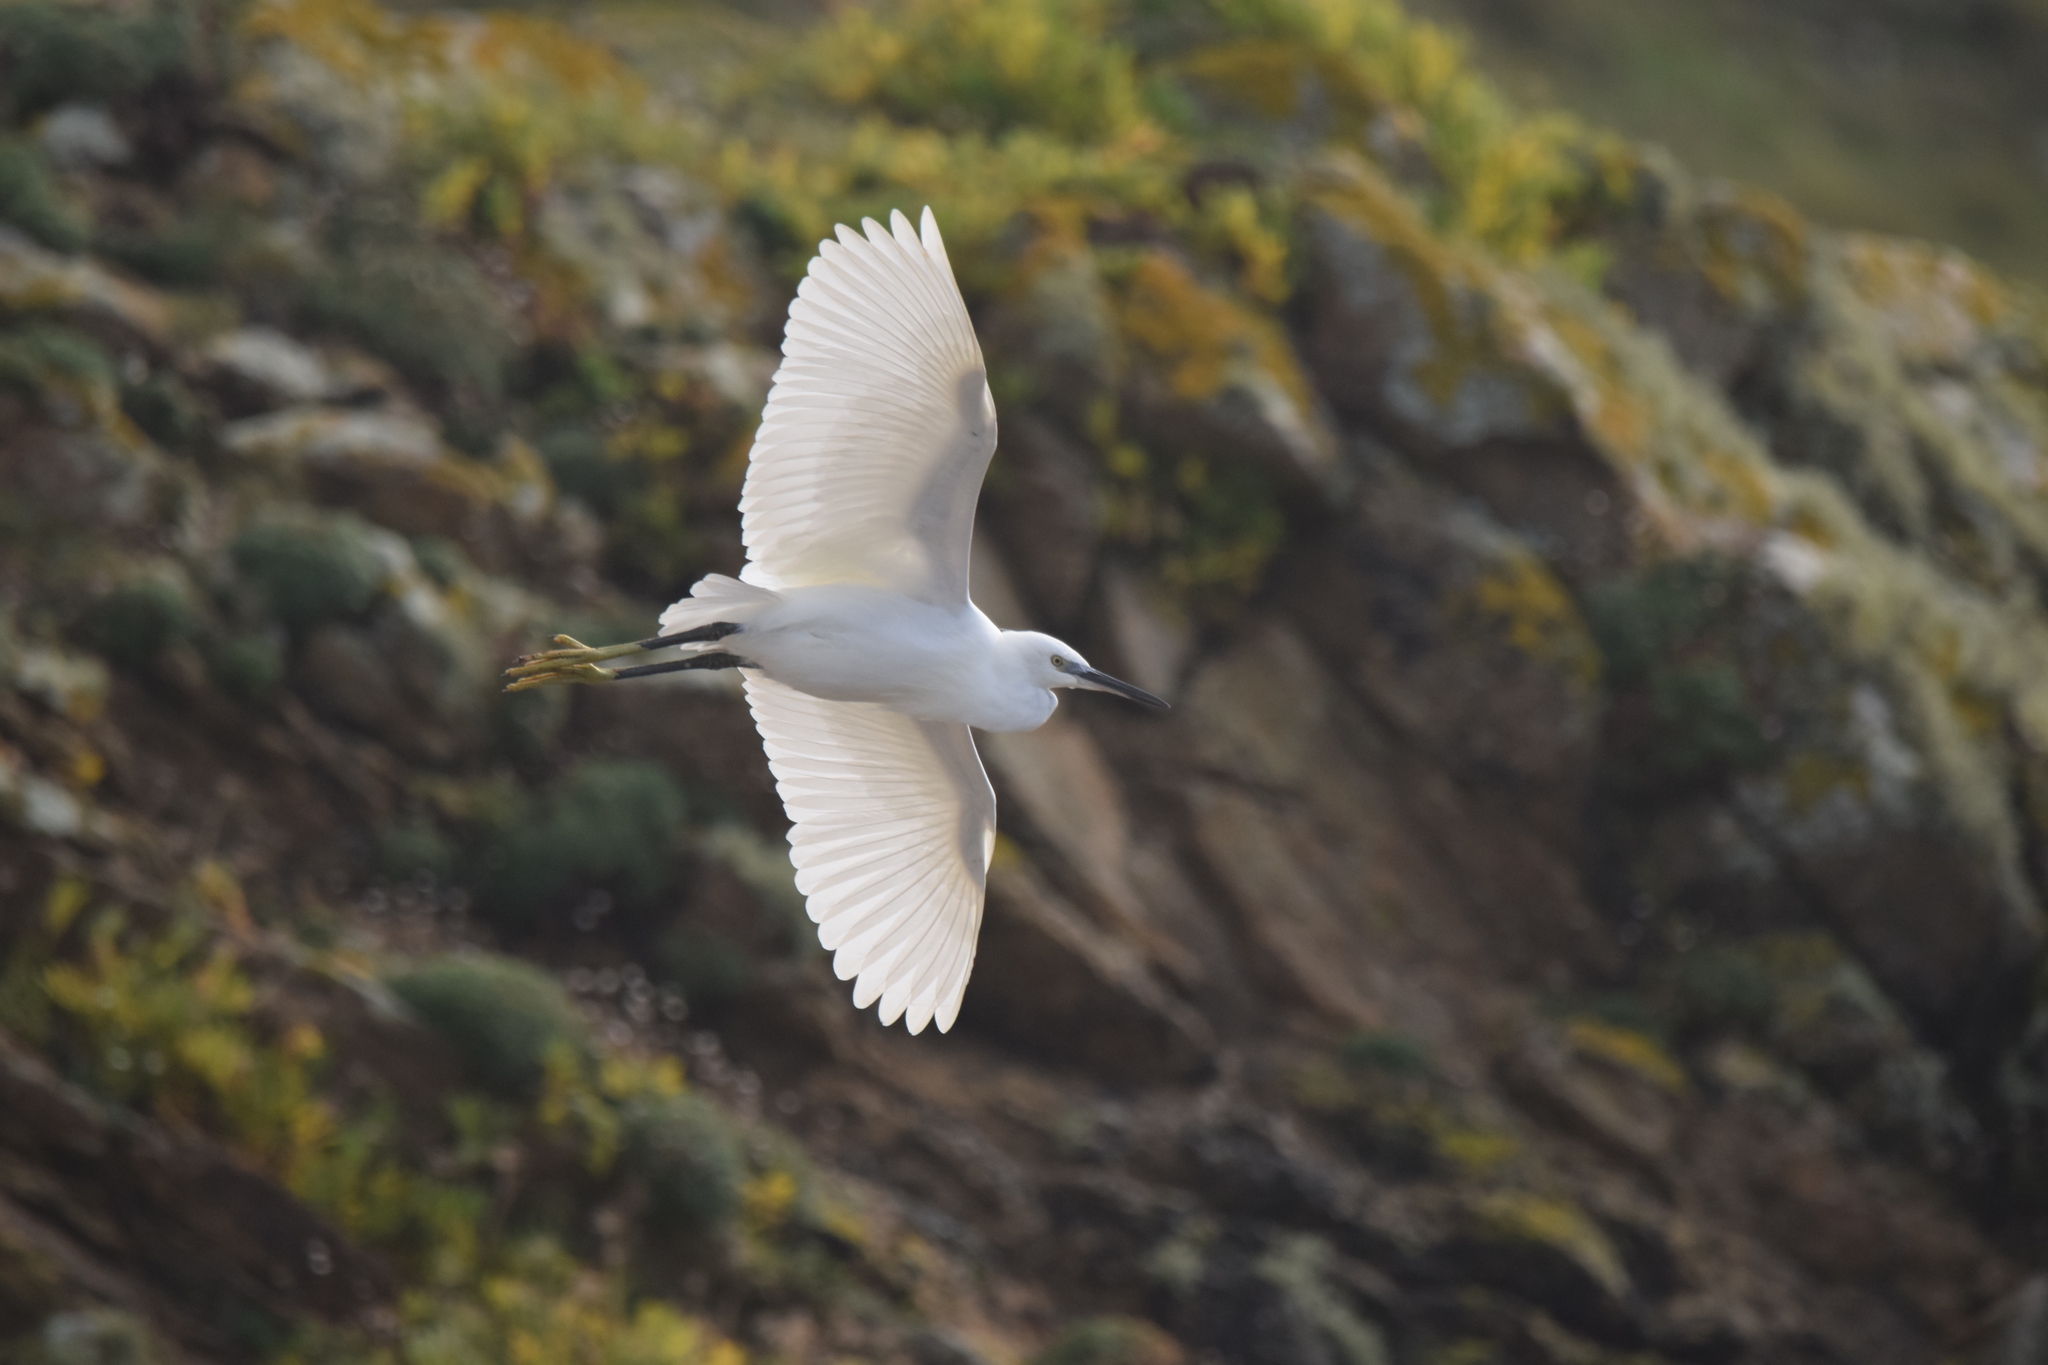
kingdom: Animalia
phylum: Chordata
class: Aves
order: Pelecaniformes
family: Ardeidae
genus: Egretta
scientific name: Egretta garzetta
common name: Little egret
